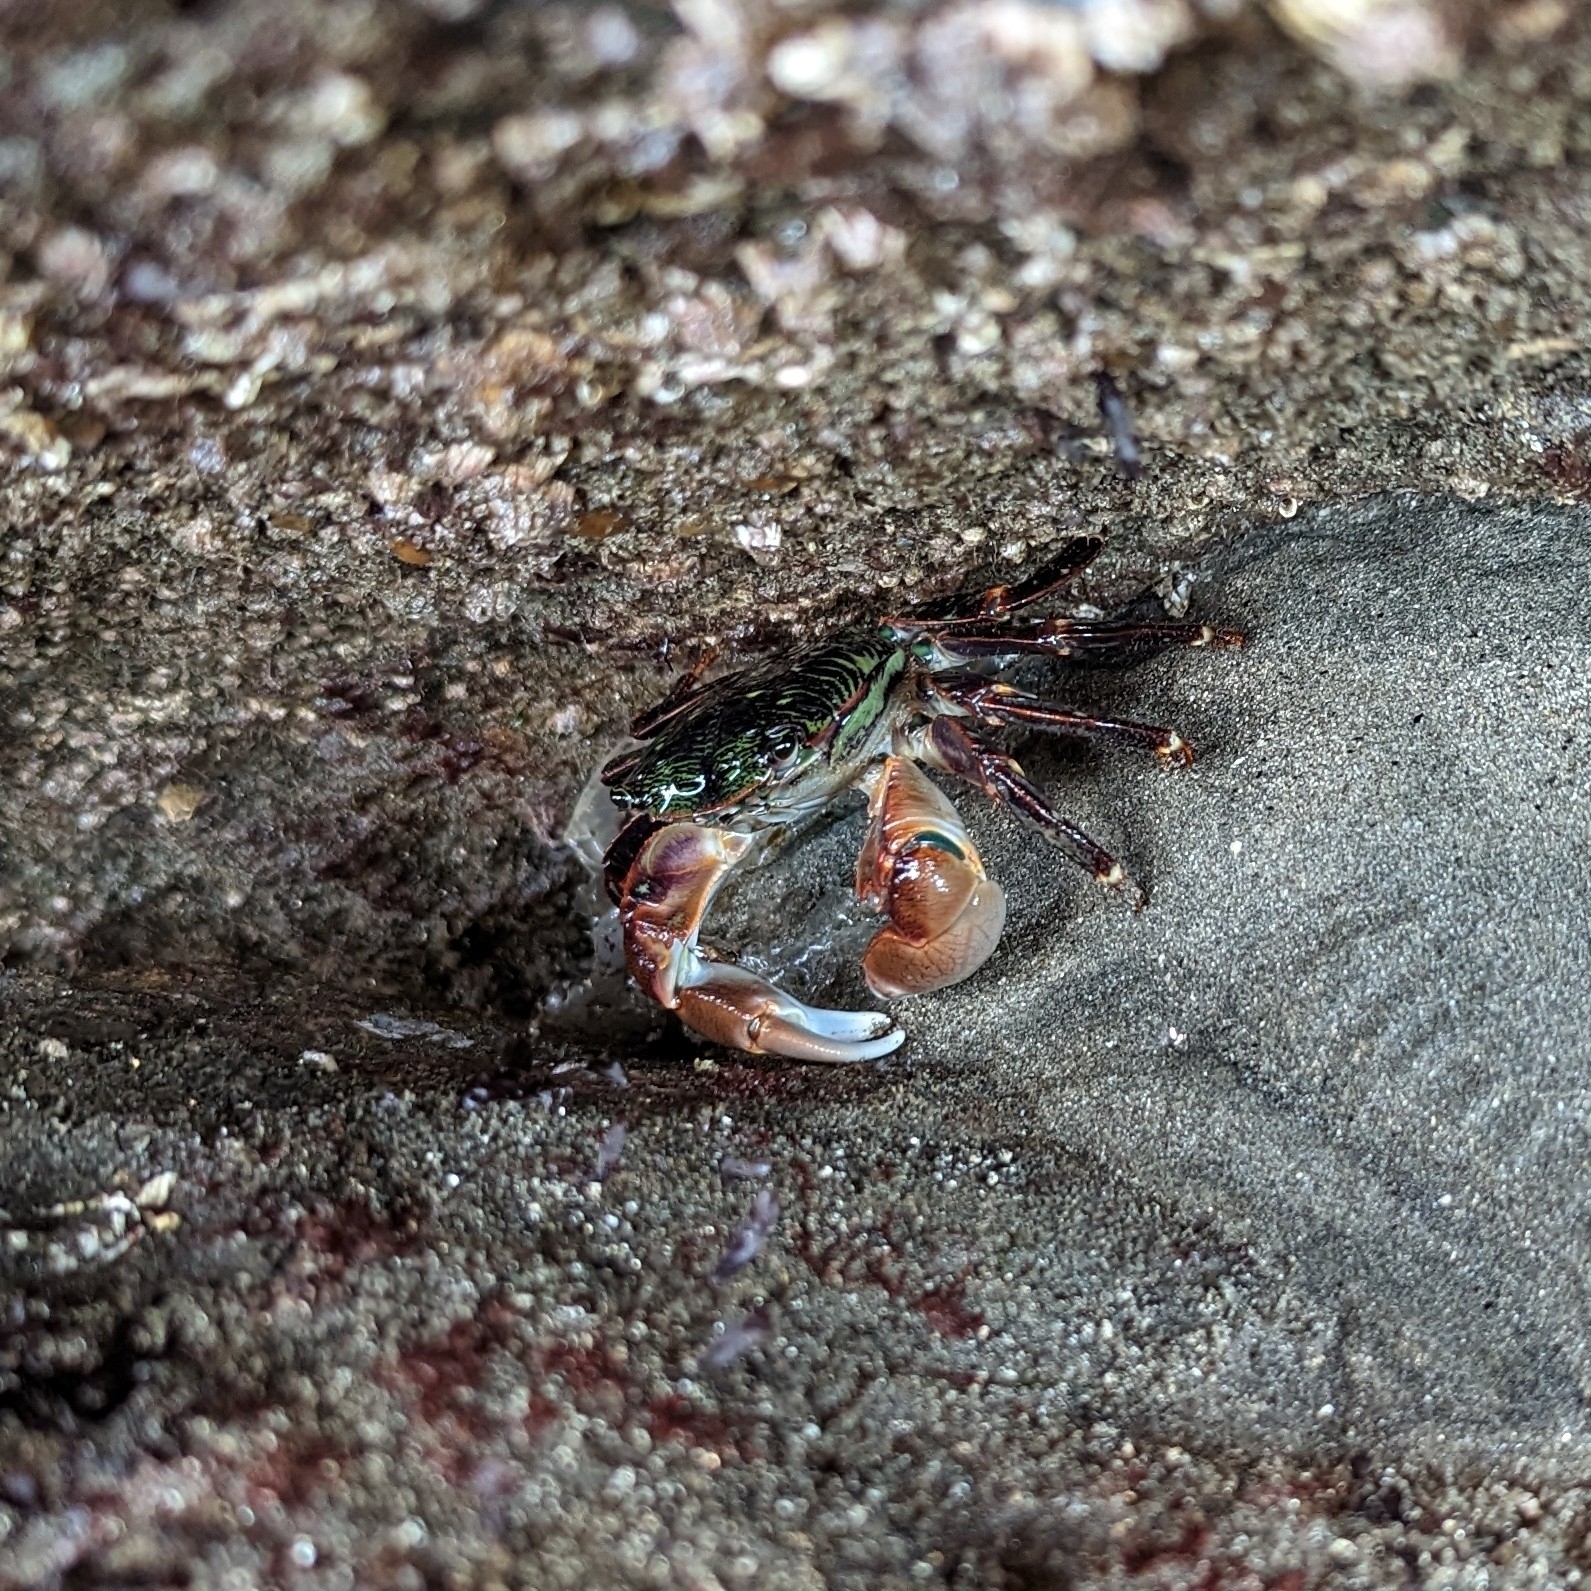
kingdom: Animalia
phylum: Arthropoda
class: Malacostraca
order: Decapoda
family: Grapsidae
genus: Pachygrapsus
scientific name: Pachygrapsus crassipes
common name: Striped shore crab
